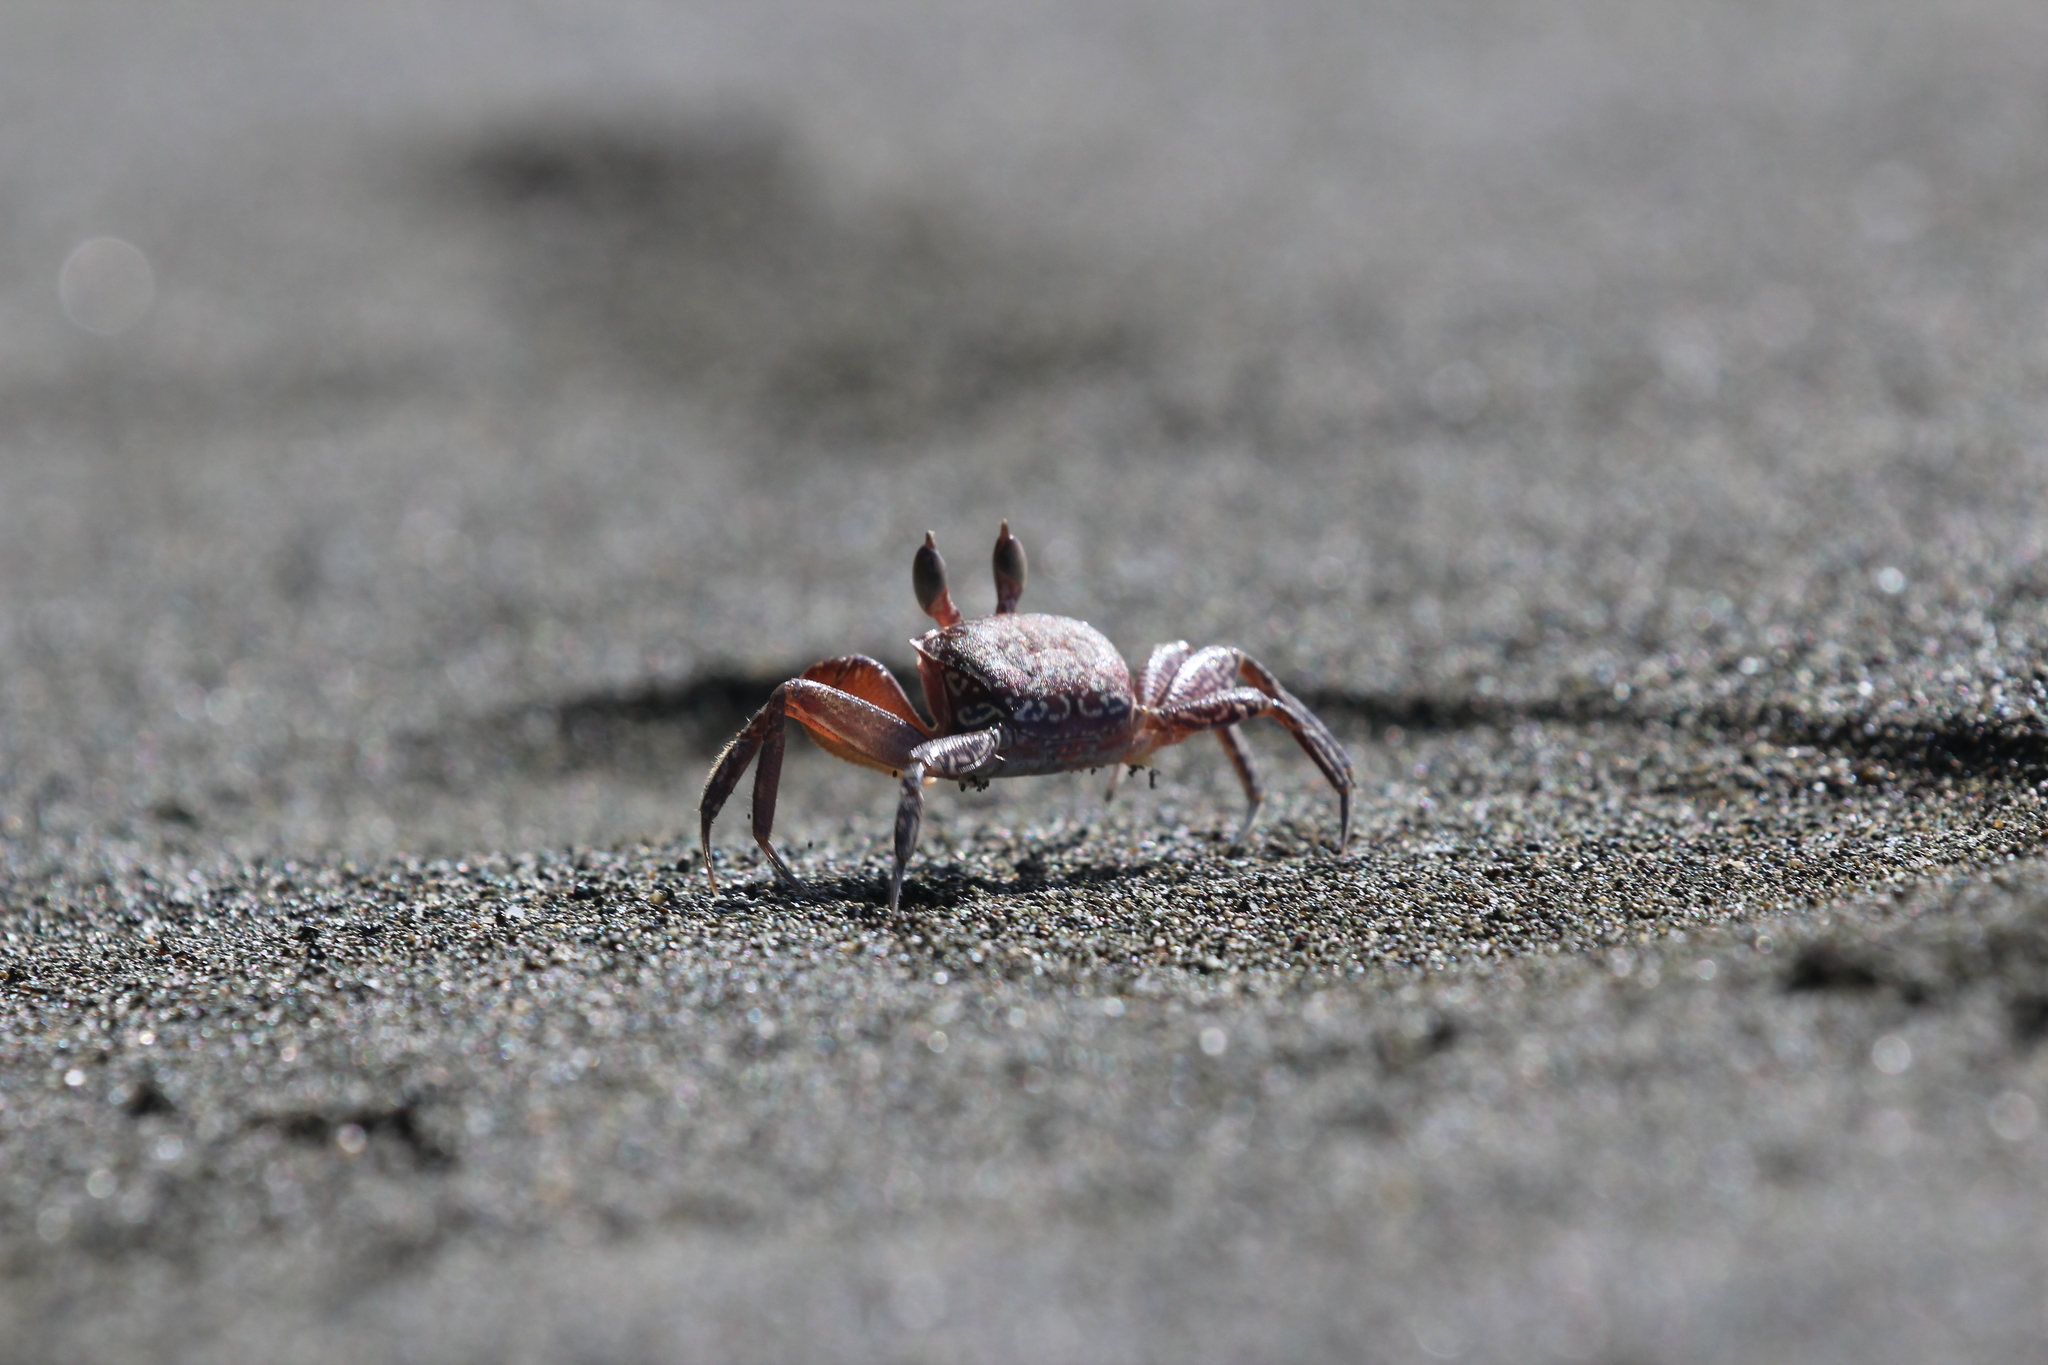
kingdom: Animalia
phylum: Arthropoda
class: Malacostraca
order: Decapoda
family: Ocypodidae
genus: Ocypode
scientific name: Ocypode gaudichaudii
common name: Pacific ghost crab
